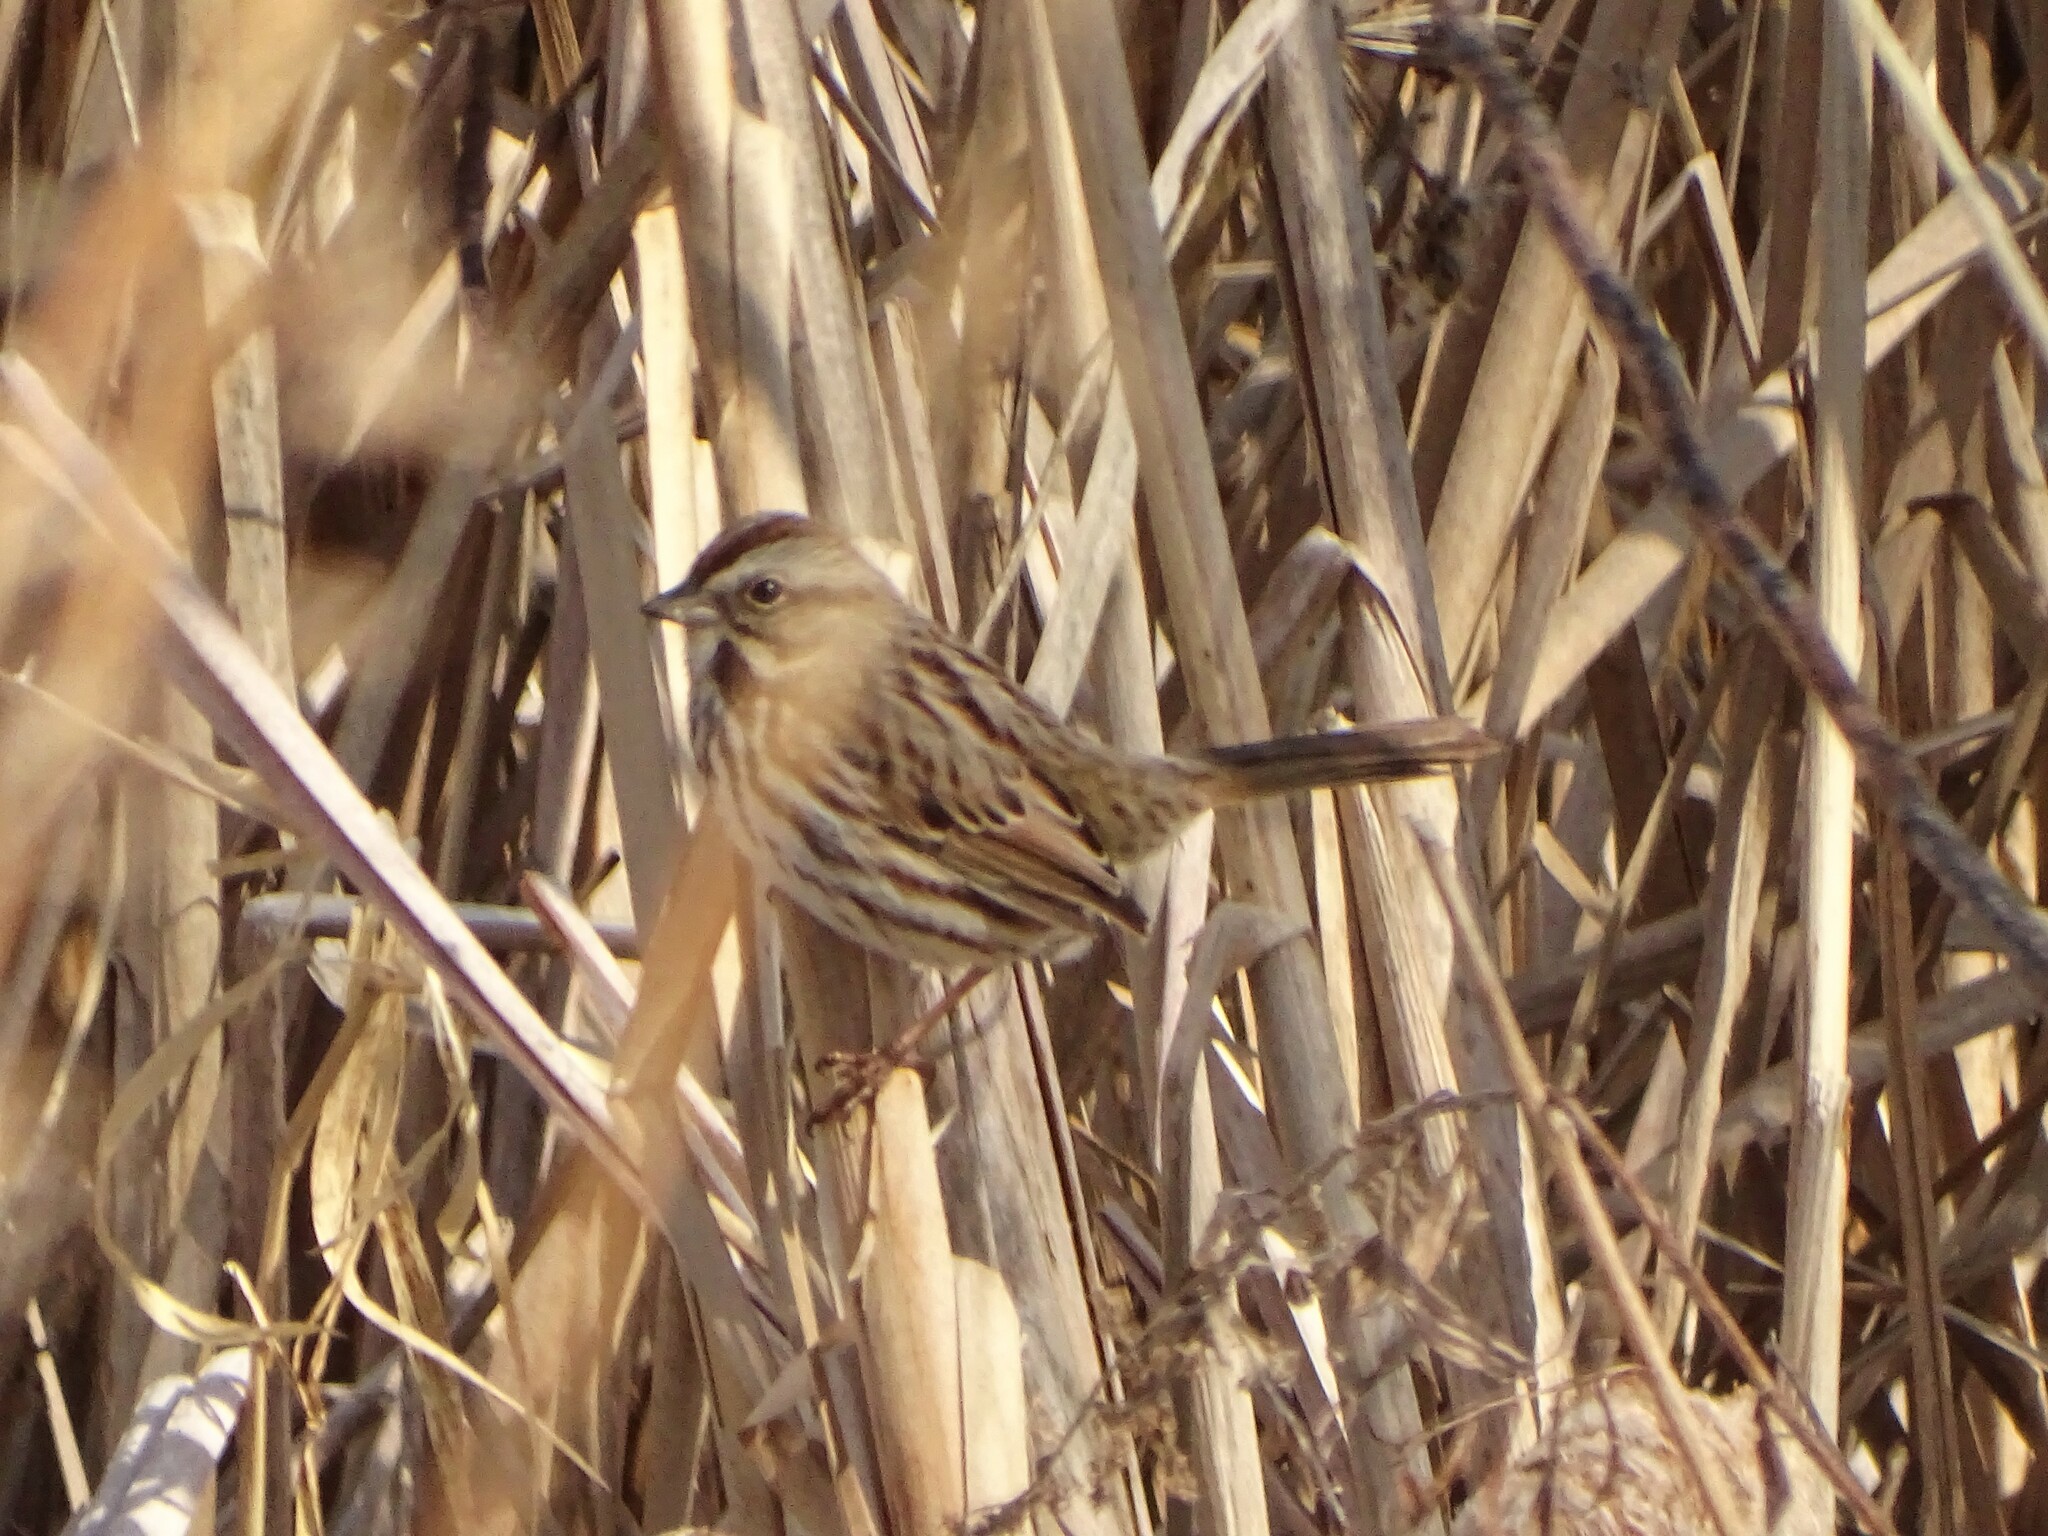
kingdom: Animalia
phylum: Chordata
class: Aves
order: Passeriformes
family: Passerellidae
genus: Melospiza
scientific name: Melospiza melodia
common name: Song sparrow
